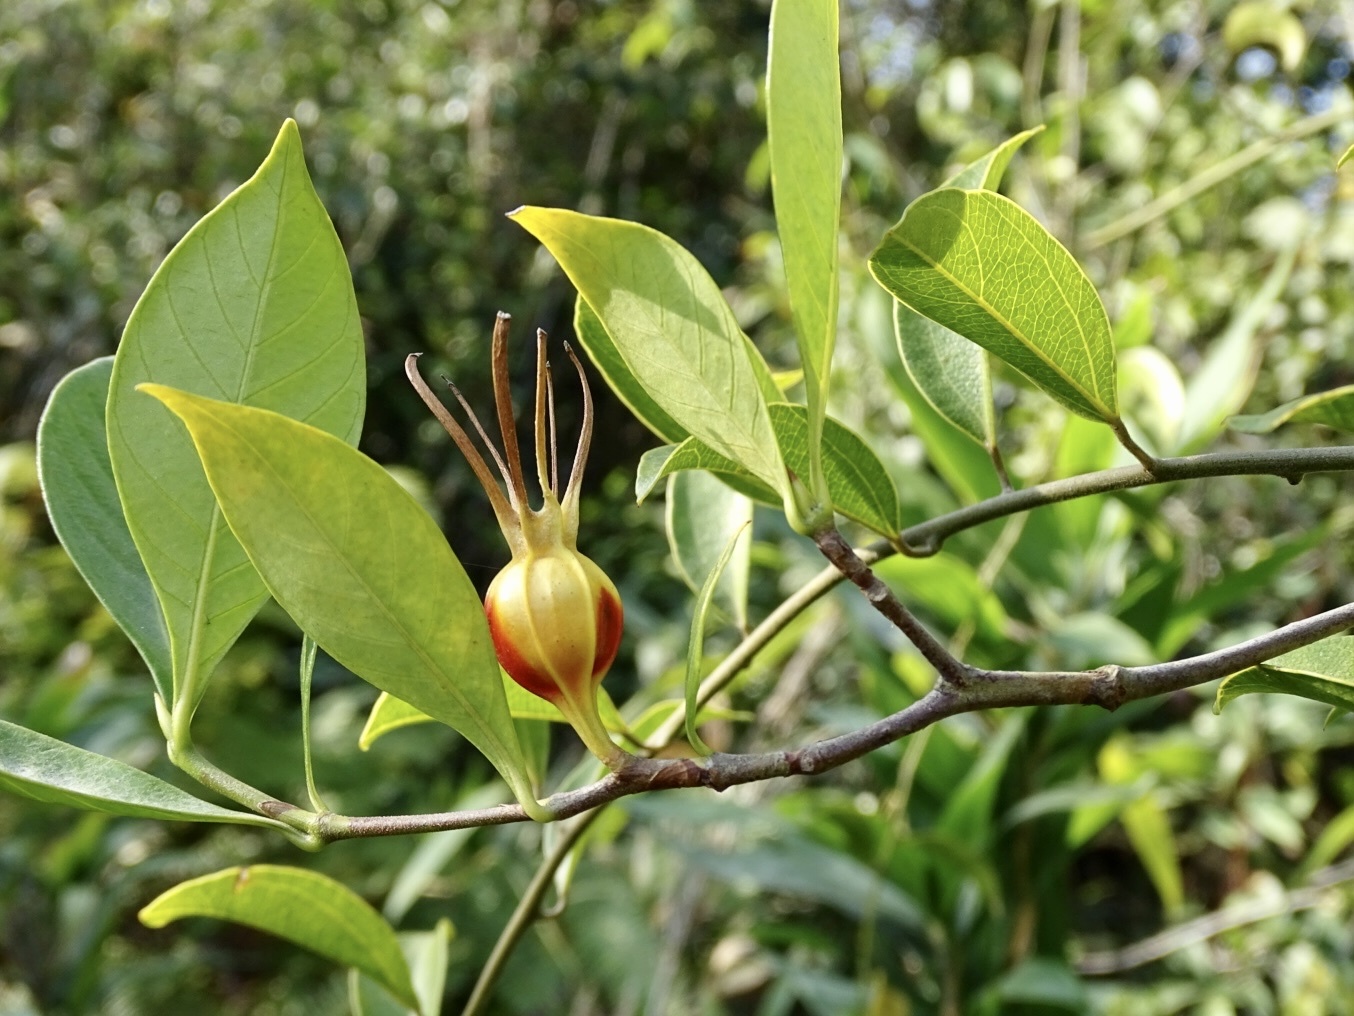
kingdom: Plantae
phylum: Tracheophyta
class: Magnoliopsida
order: Gentianales
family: Rubiaceae
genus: Gardenia
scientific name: Gardenia jasminoides
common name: Cape-jasmine
